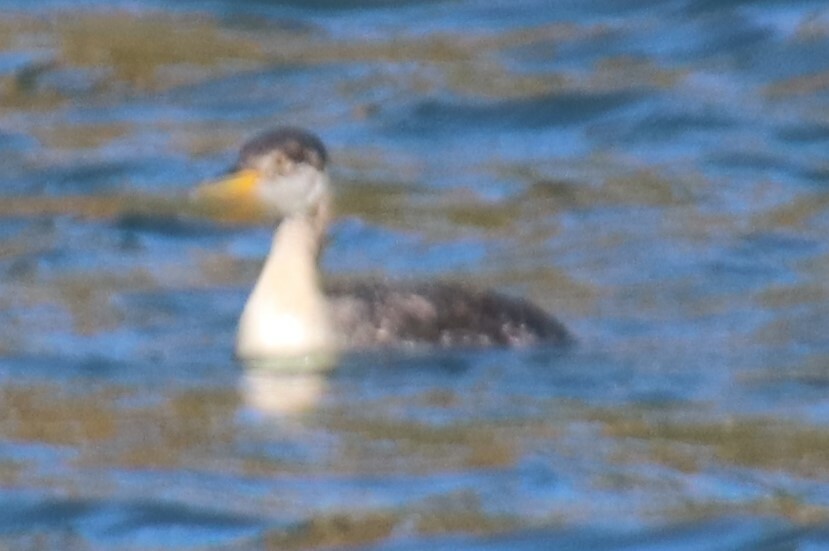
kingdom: Animalia
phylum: Chordata
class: Aves
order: Podicipediformes
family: Podicipedidae
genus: Podiceps
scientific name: Podiceps grisegena
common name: Red-necked grebe
